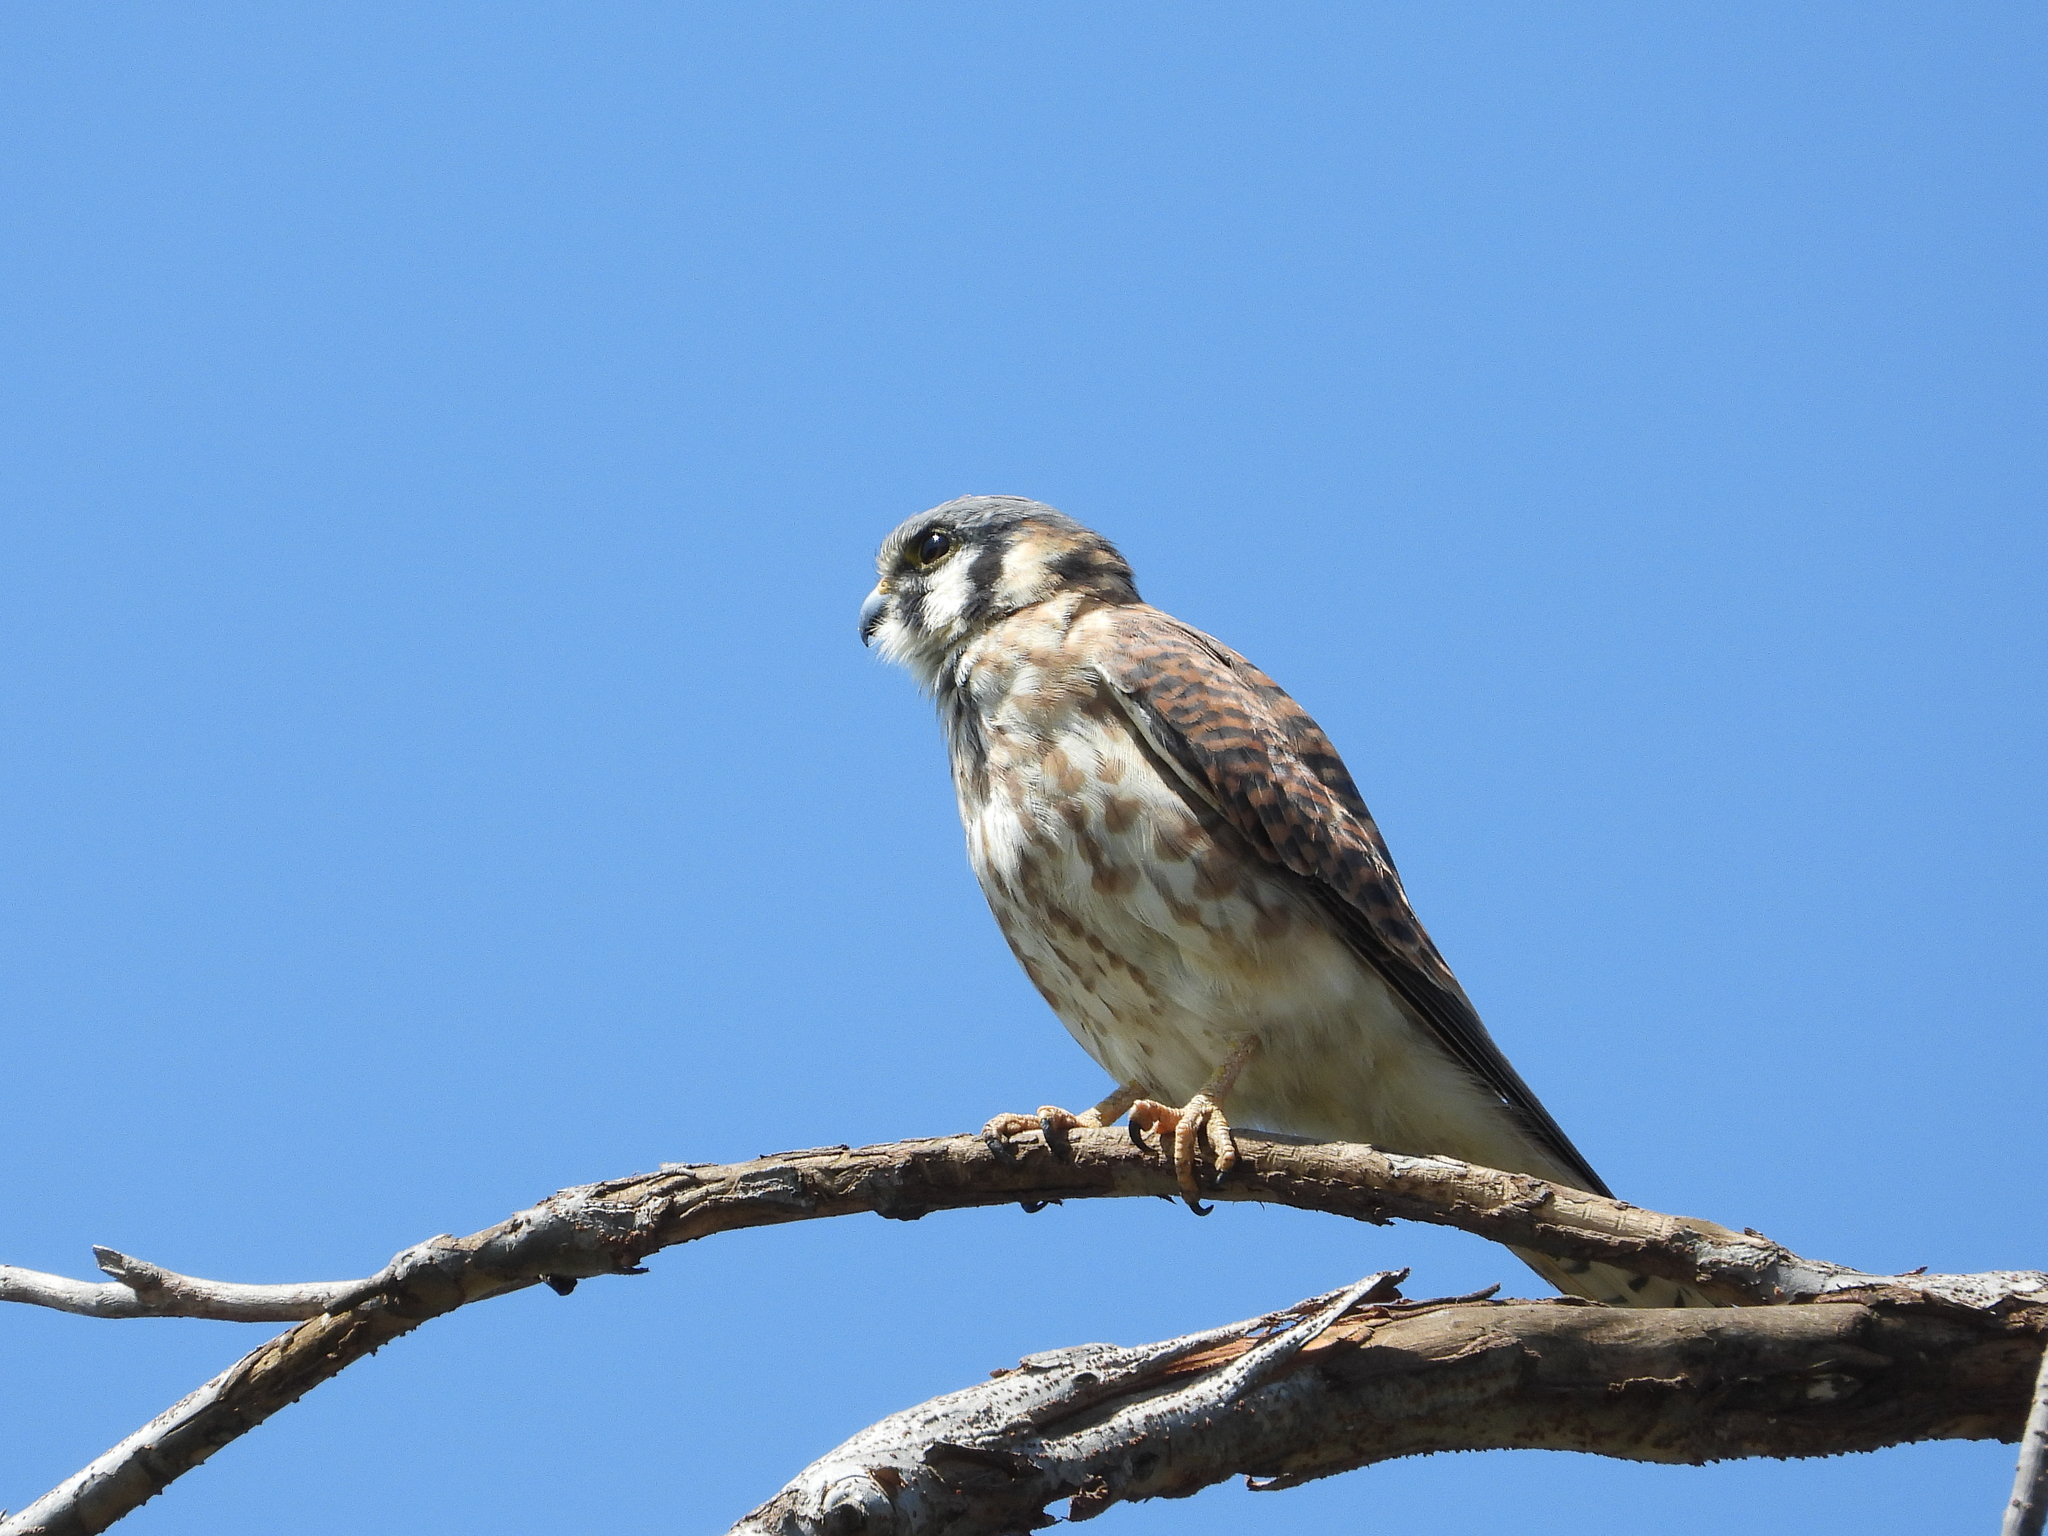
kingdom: Animalia
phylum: Chordata
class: Aves
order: Falconiformes
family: Falconidae
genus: Falco
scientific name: Falco sparverius
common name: American kestrel
